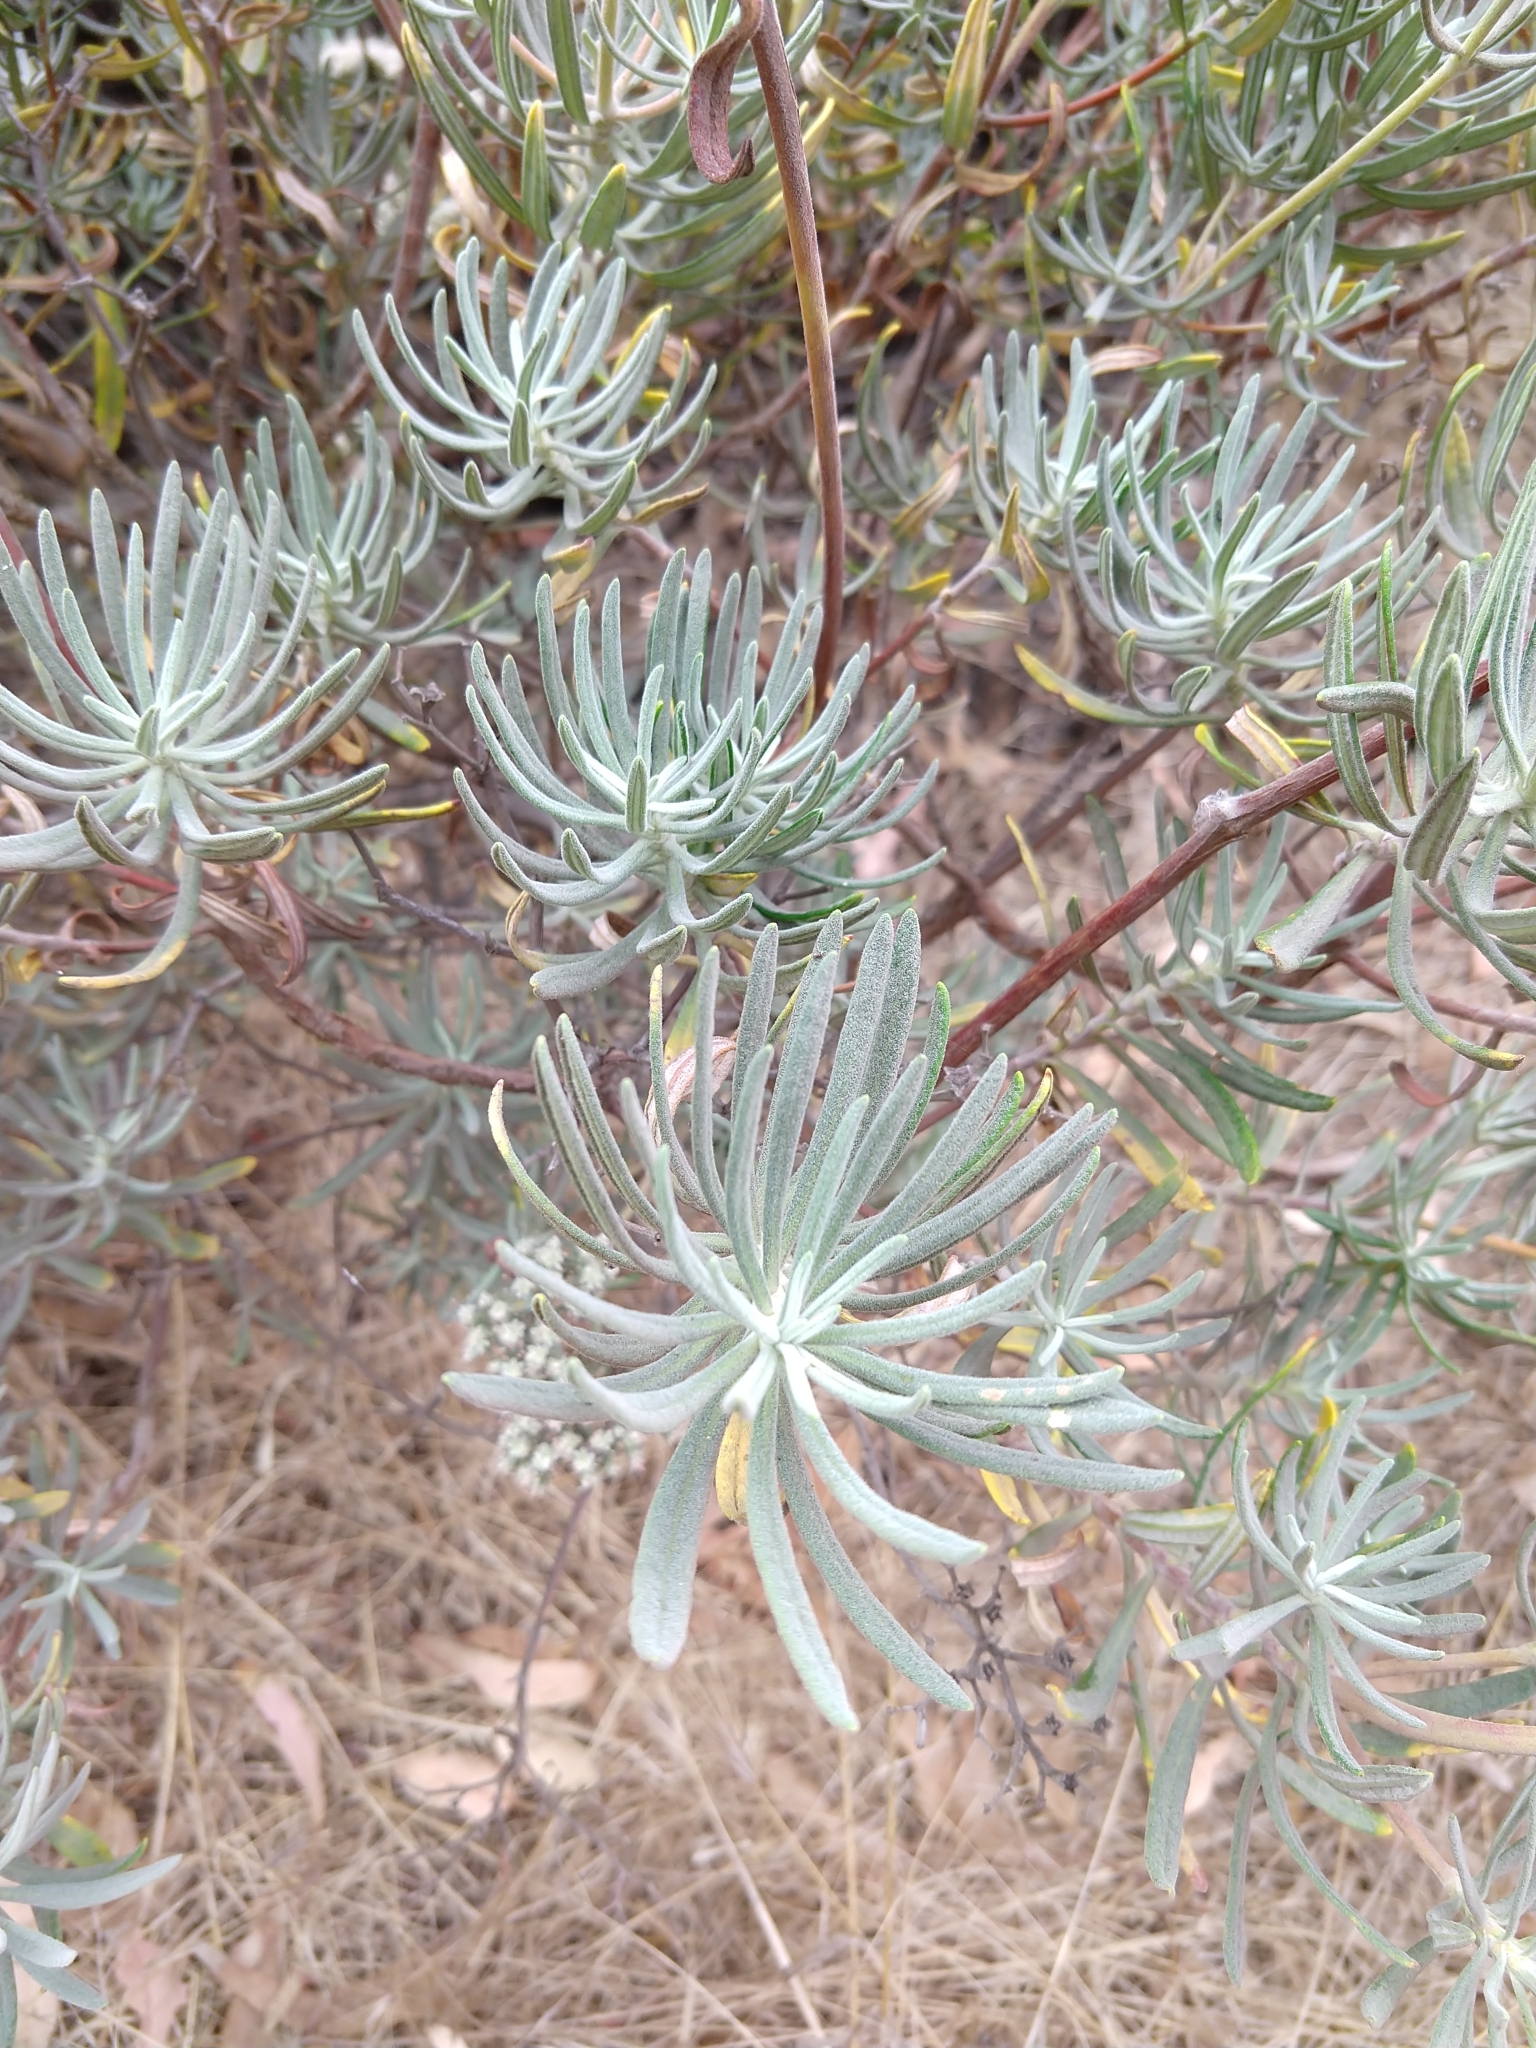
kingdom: Plantae
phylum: Tracheophyta
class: Magnoliopsida
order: Caryophyllales
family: Polygonaceae
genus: Eriogonum
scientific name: Eriogonum arborescens
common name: Island buckwheat
